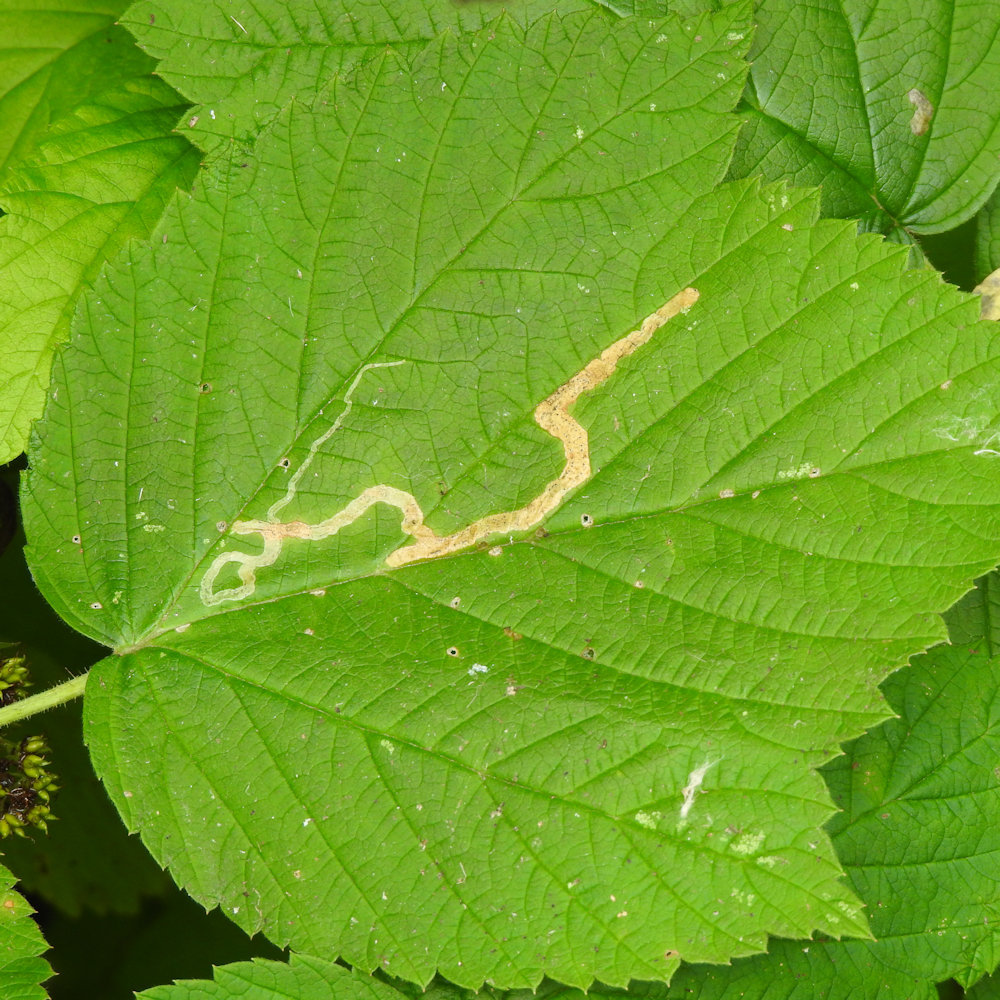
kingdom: Animalia
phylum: Arthropoda
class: Insecta
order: Diptera
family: Agromyzidae
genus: Agromyza
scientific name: Agromyza vockerothi
